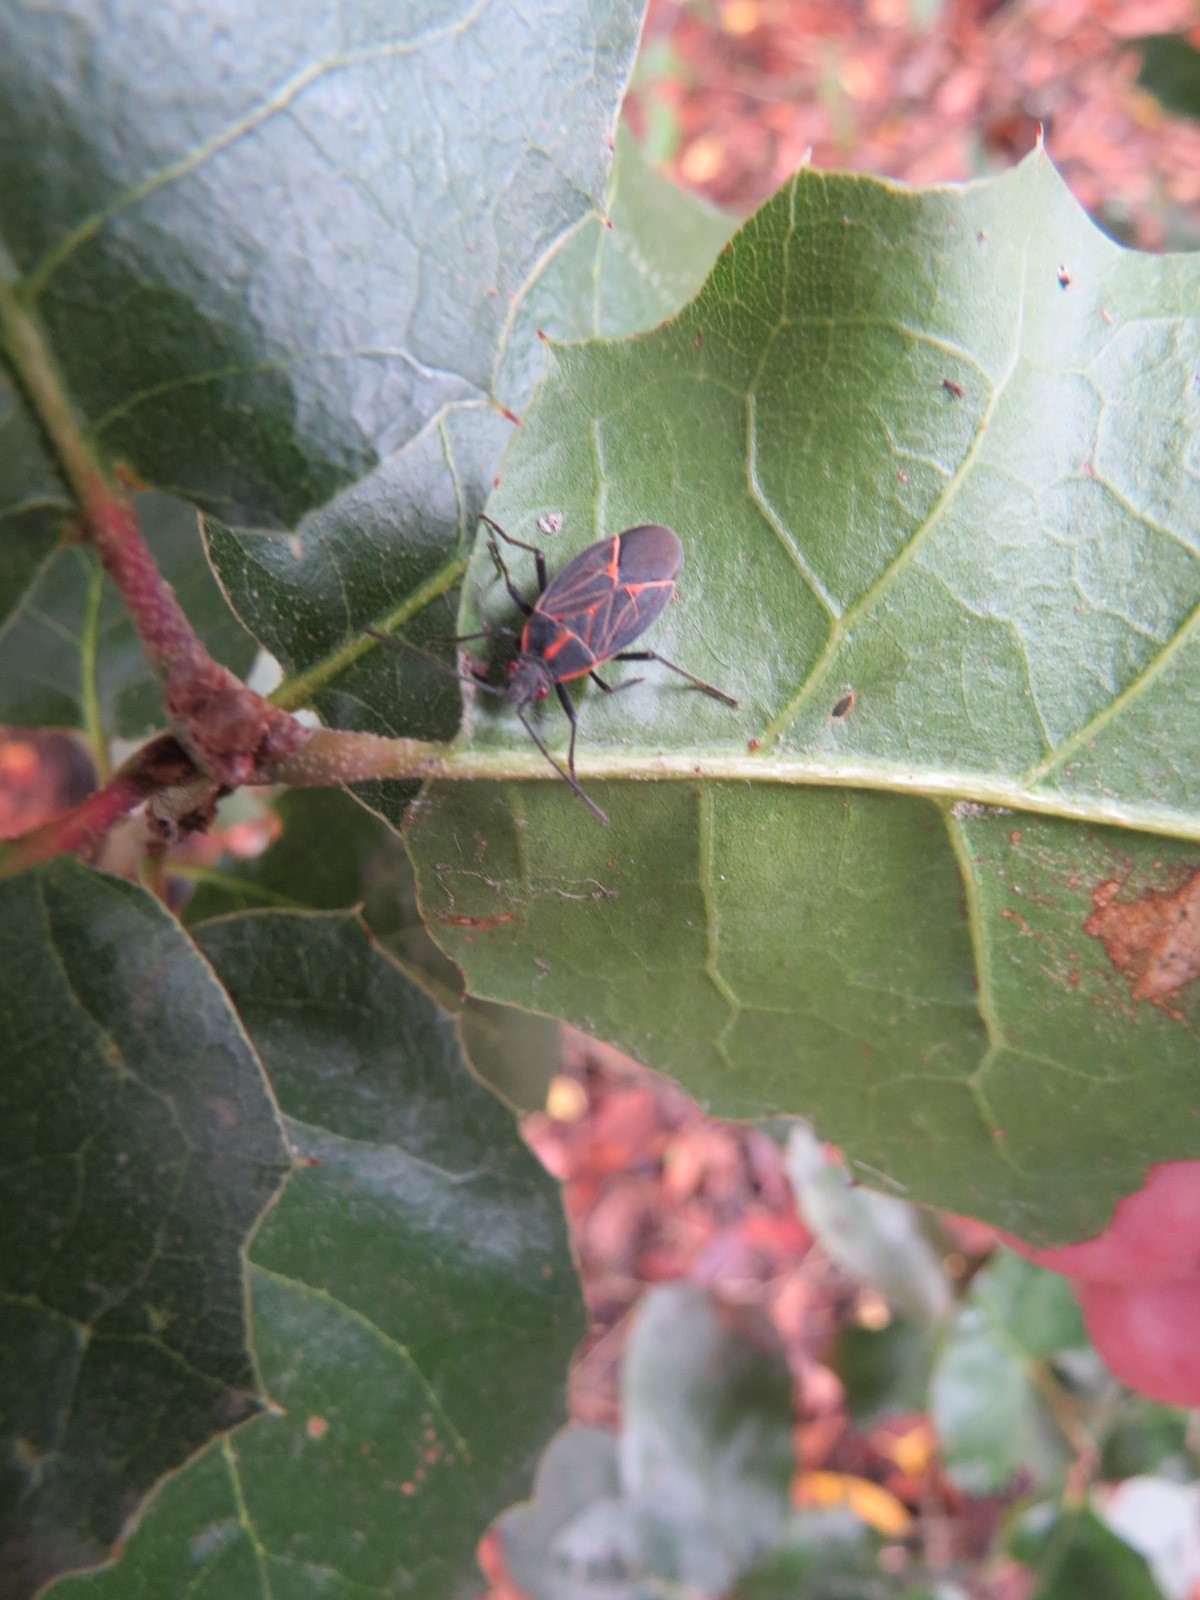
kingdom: Animalia
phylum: Arthropoda
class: Insecta
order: Hemiptera
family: Rhopalidae
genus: Boisea
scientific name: Boisea rubrolineata
